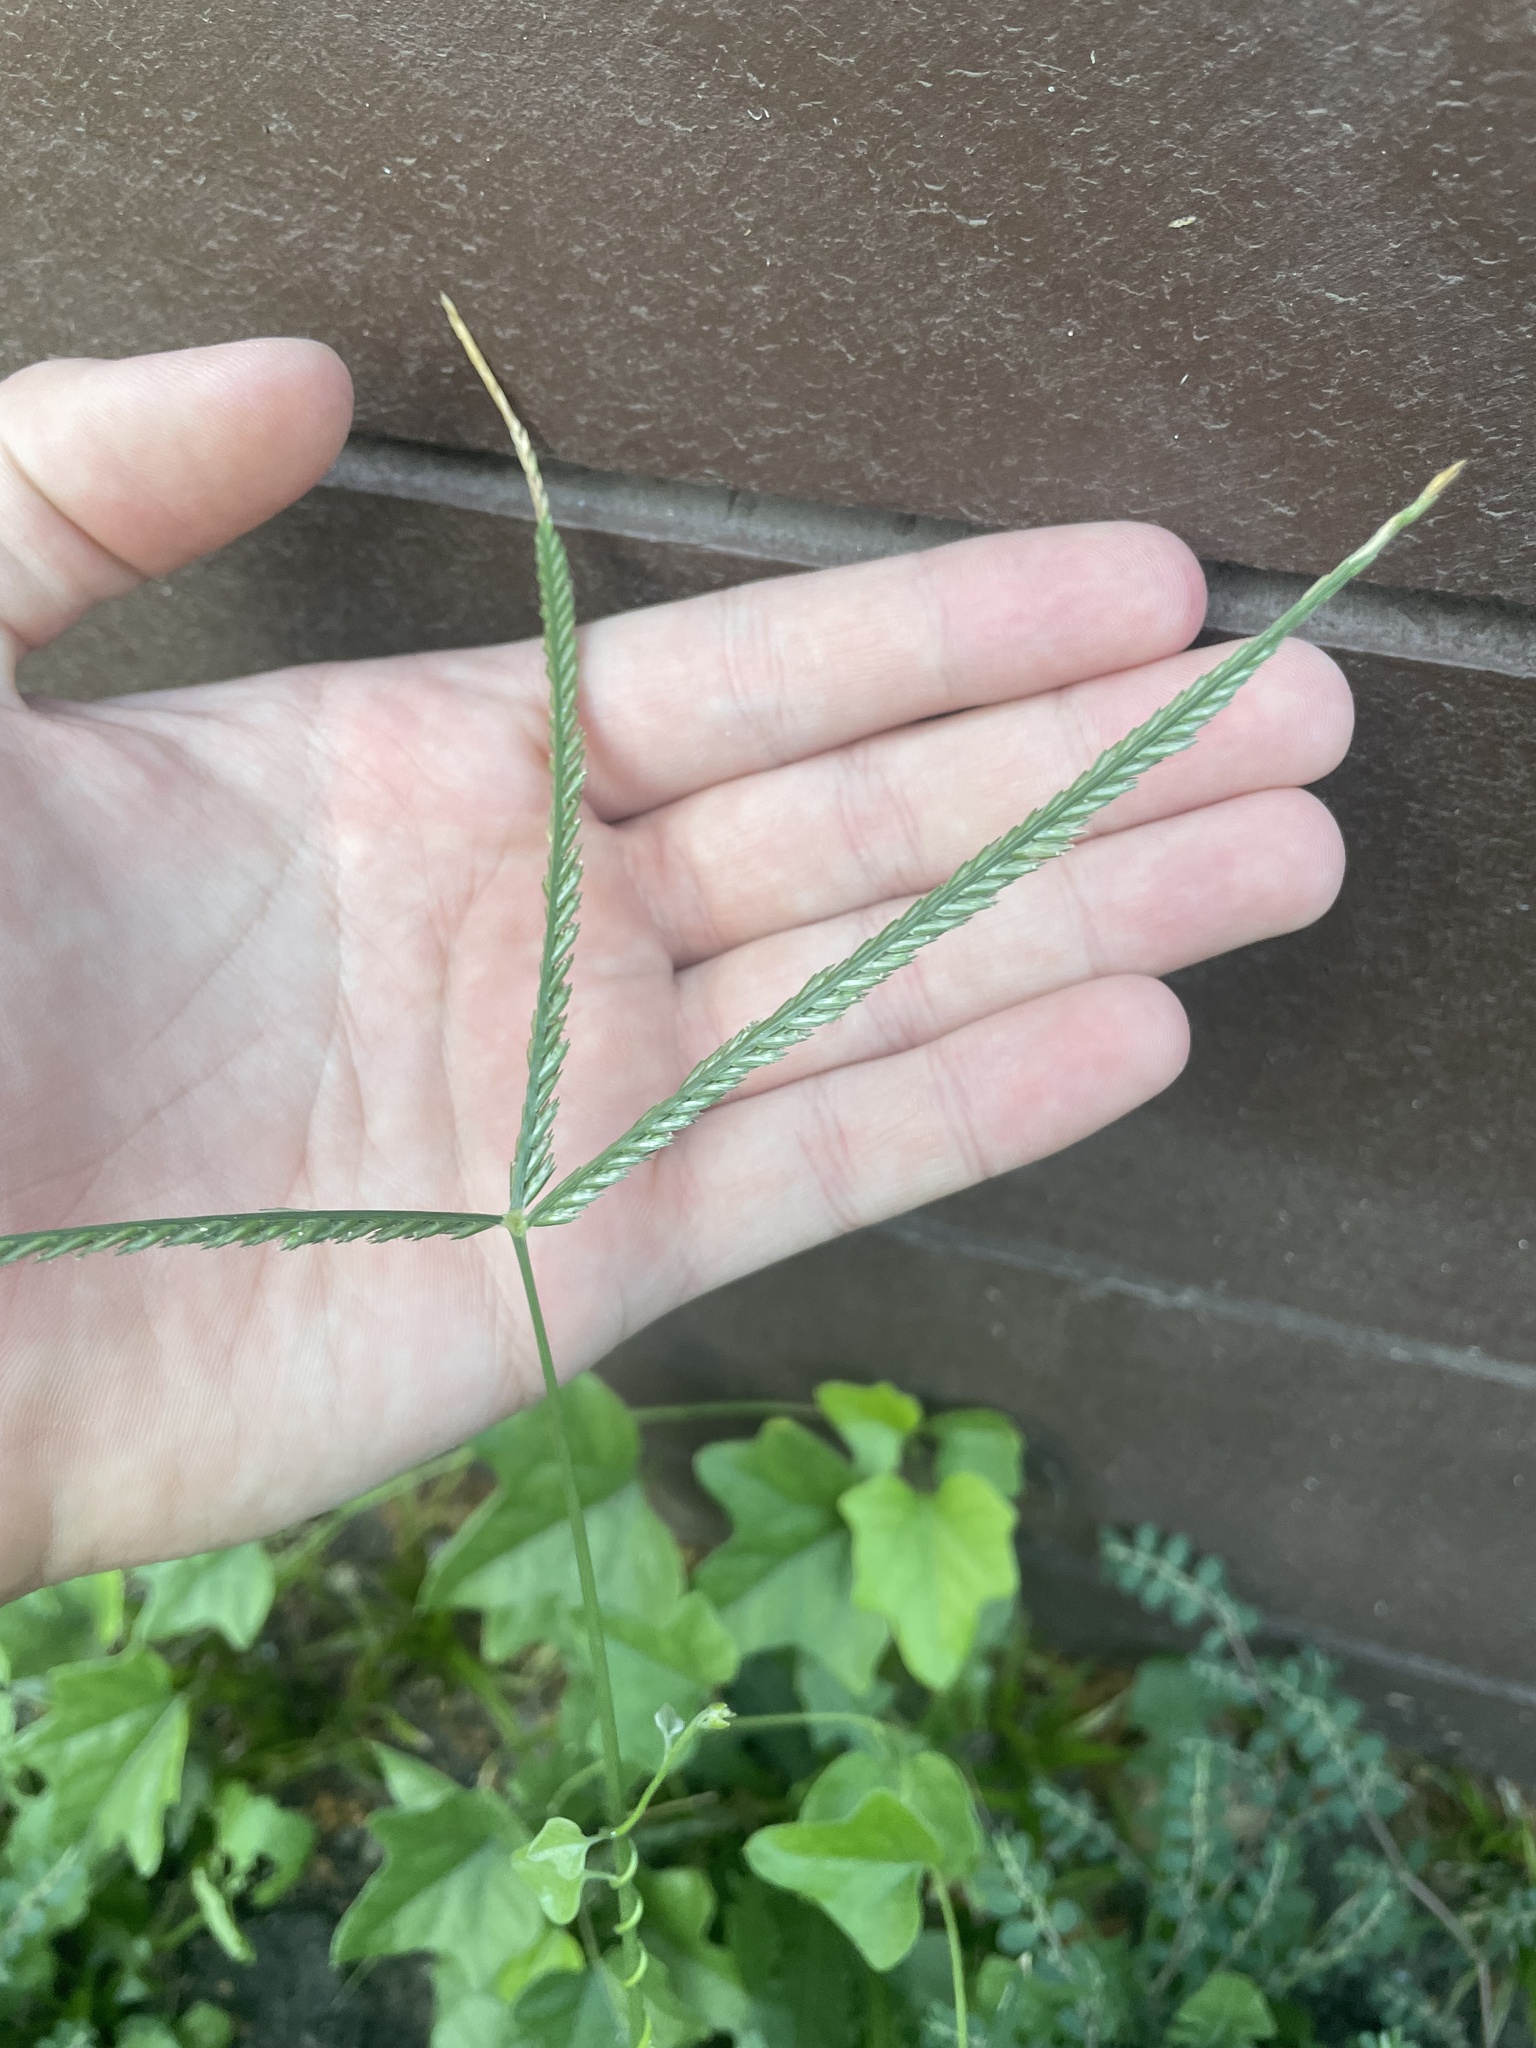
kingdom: Plantae
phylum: Tracheophyta
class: Liliopsida
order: Poales
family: Poaceae
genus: Eleusine
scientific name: Eleusine indica
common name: Yard-grass
